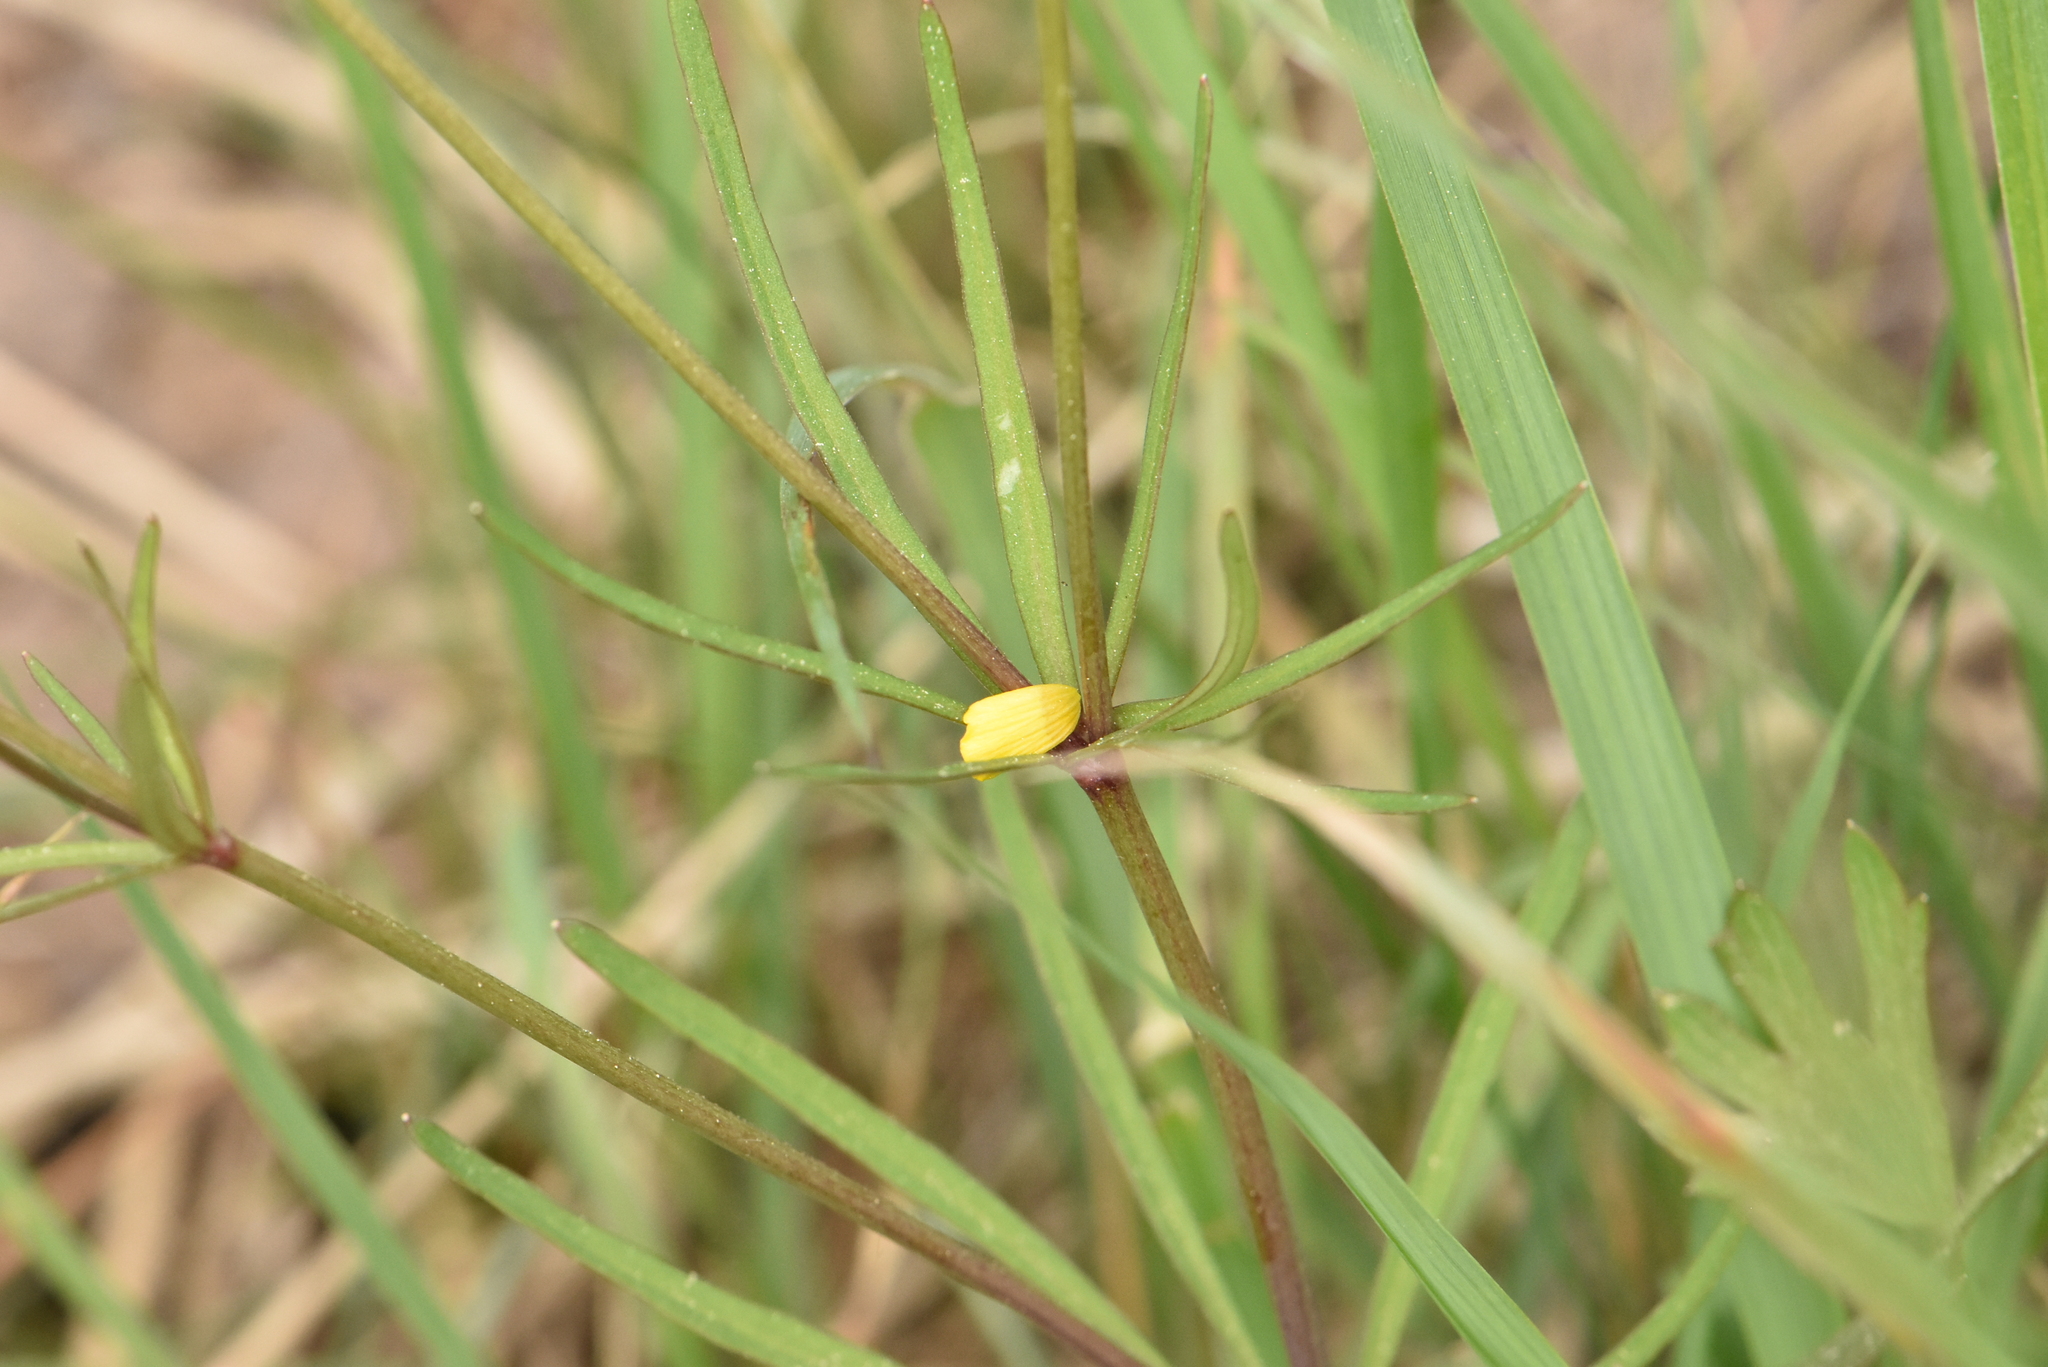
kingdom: Plantae
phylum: Tracheophyta
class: Magnoliopsida
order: Ranunculales
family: Ranunculaceae
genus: Ranunculus
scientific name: Ranunculus auricomus
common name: Goldilocks buttercup
